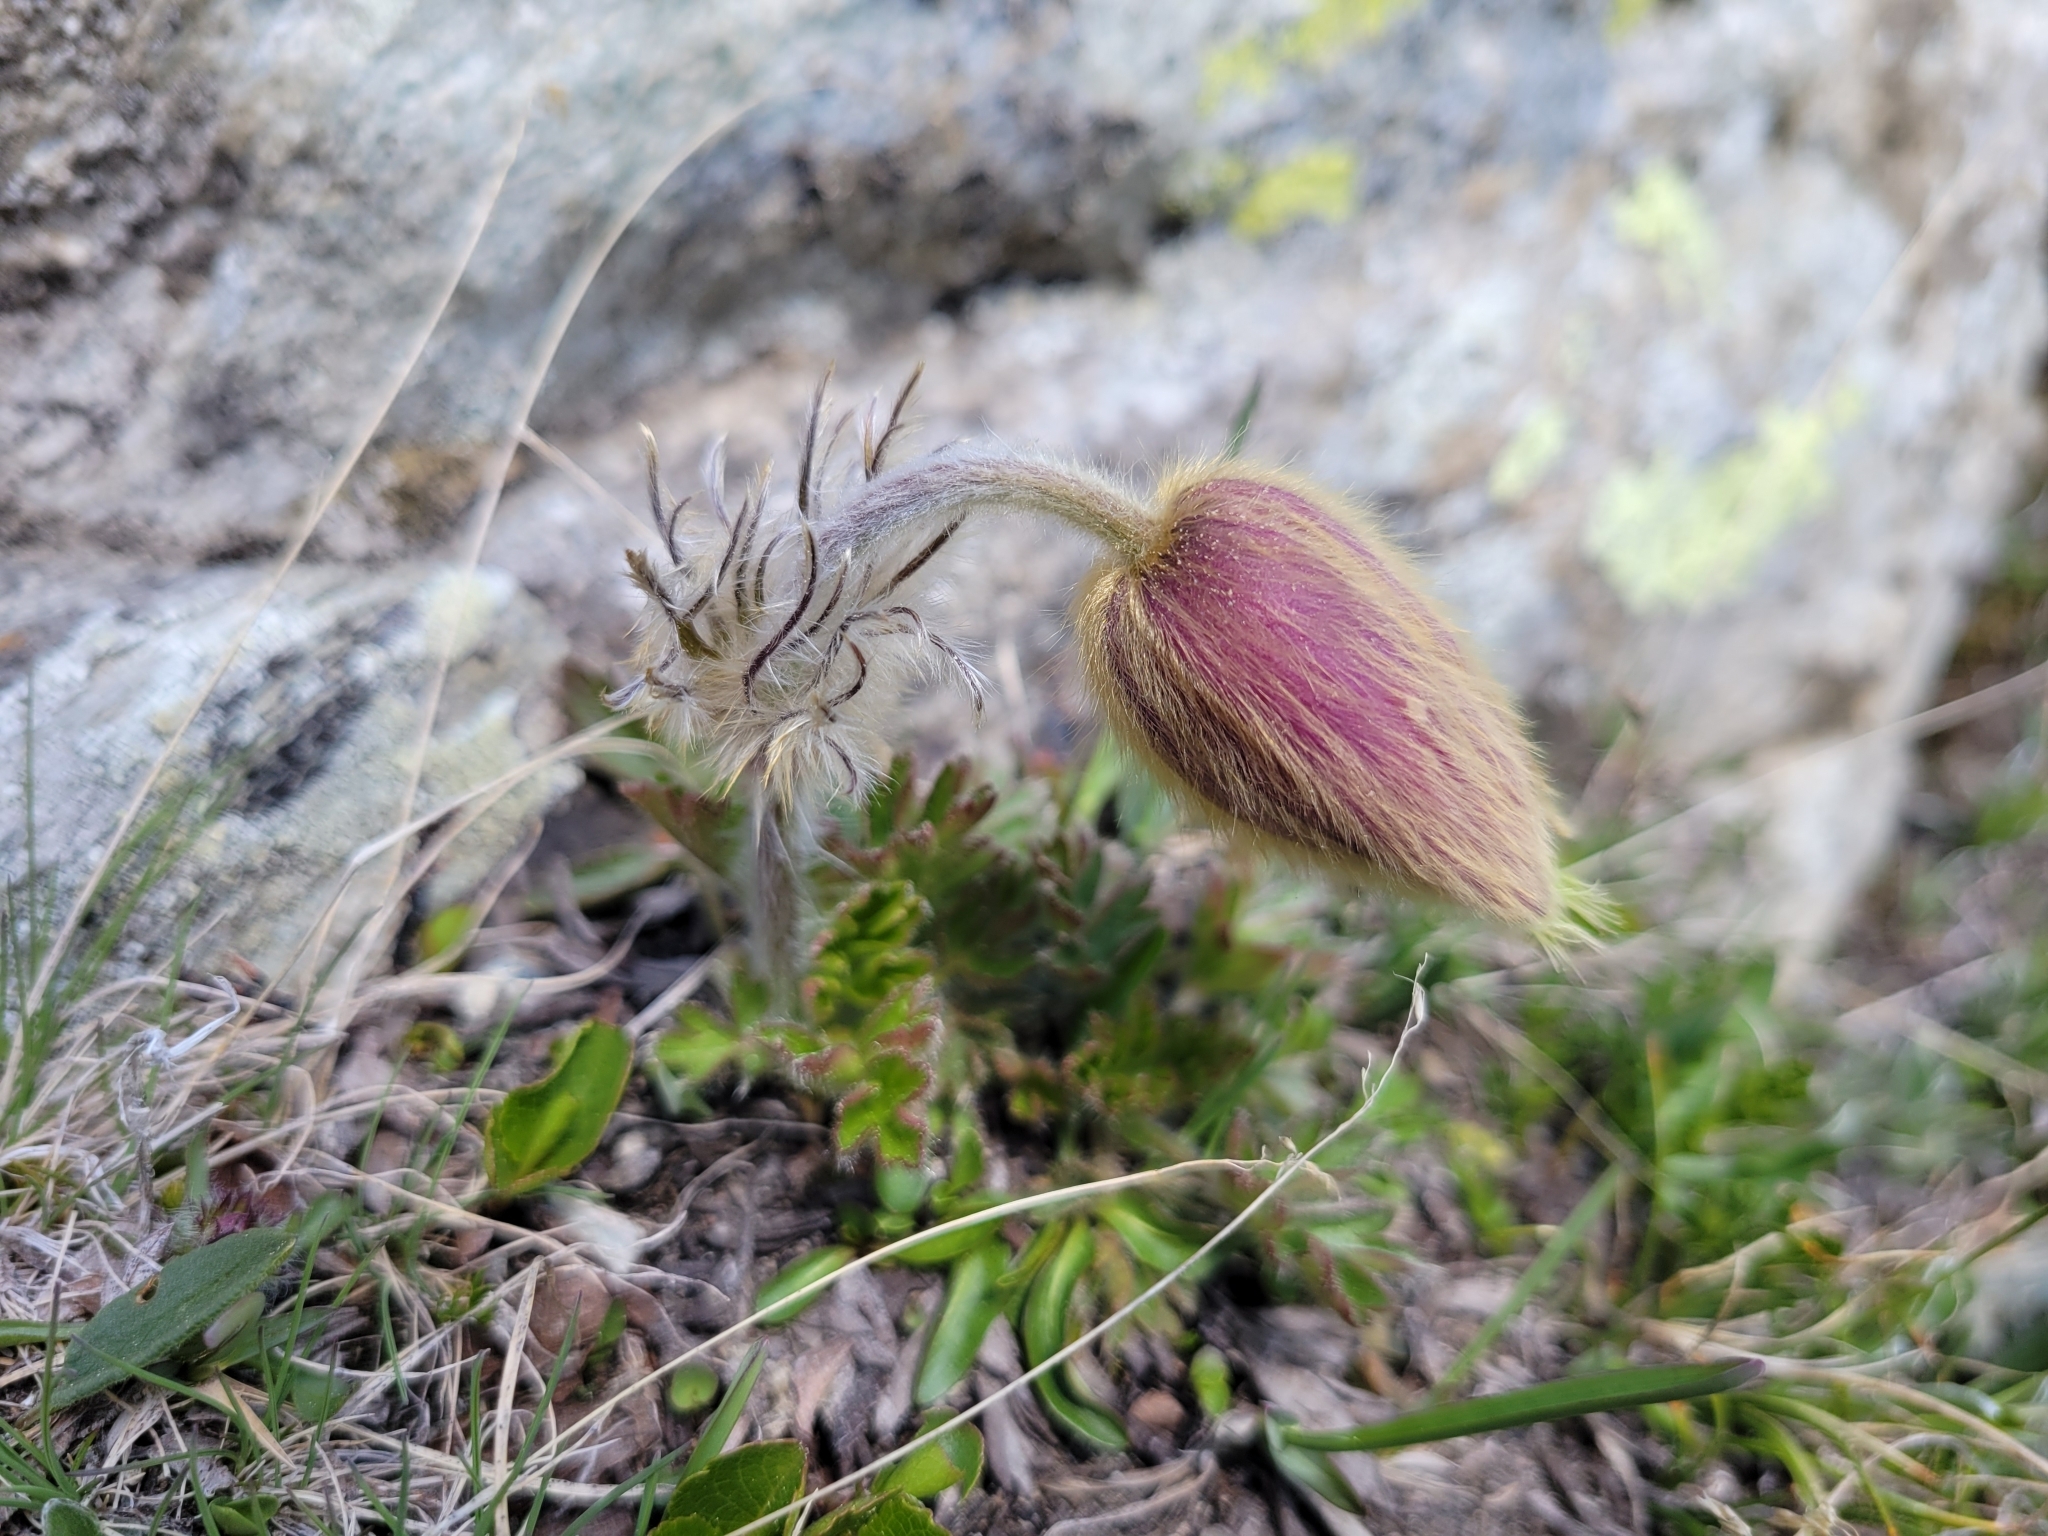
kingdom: Plantae
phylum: Tracheophyta
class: Magnoliopsida
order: Ranunculales
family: Ranunculaceae
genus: Pulsatilla
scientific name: Pulsatilla vernalis
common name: Spring pasque flower
